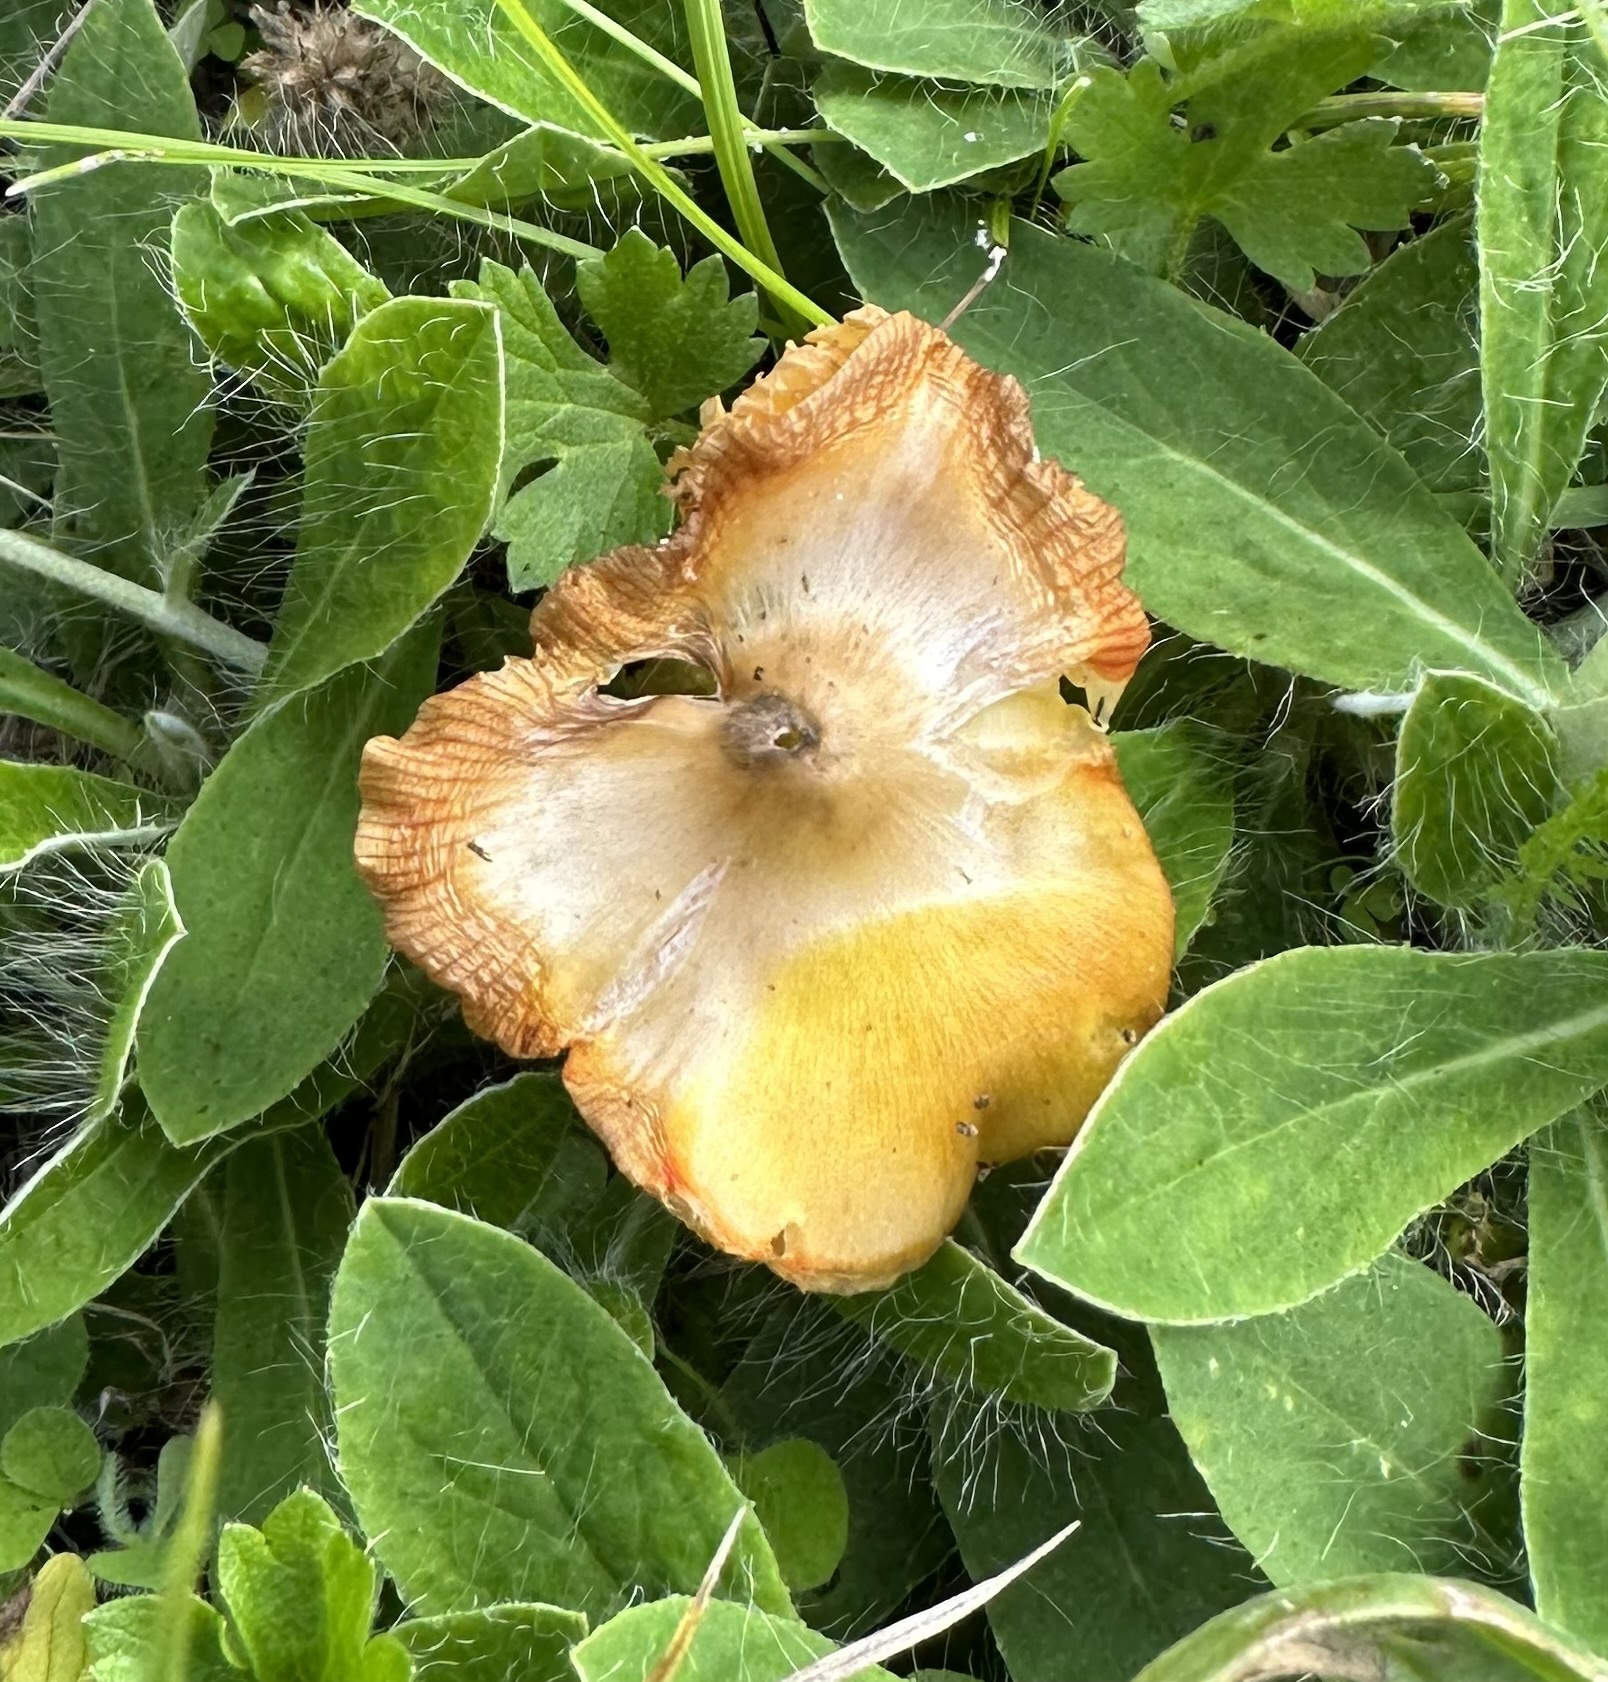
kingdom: Fungi
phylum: Basidiomycota
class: Agaricomycetes
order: Agaricales
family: Hygrophoraceae
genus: Hygrocybe
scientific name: Hygrocybe acutoconica
